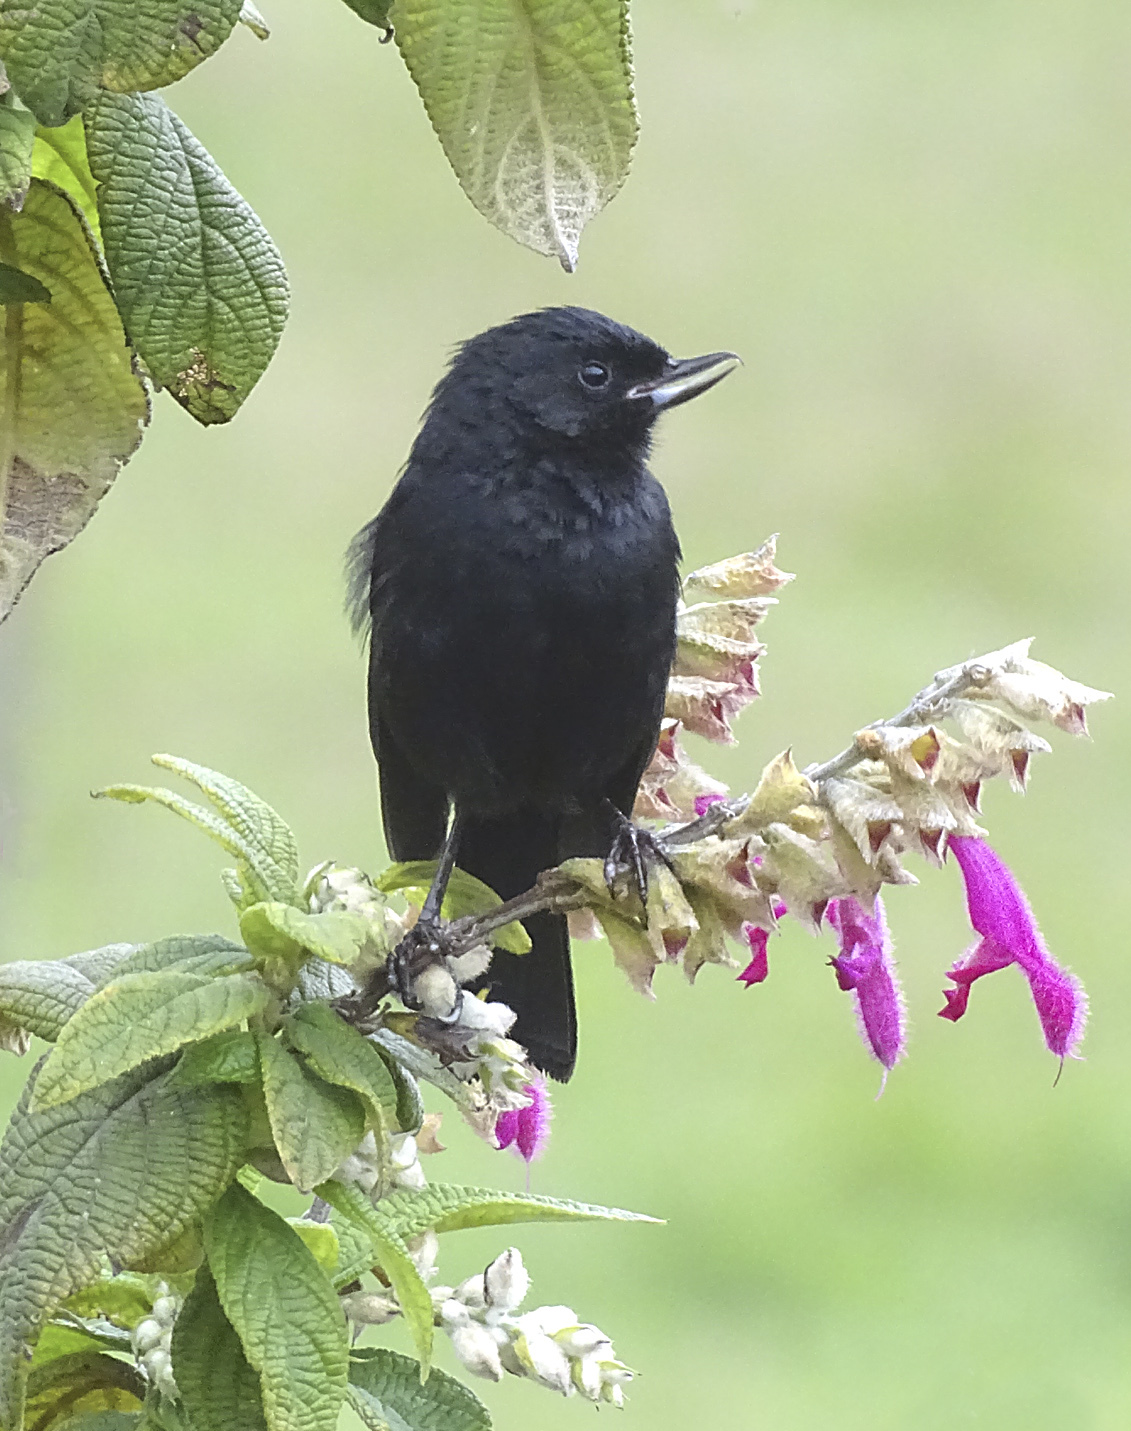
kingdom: Animalia
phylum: Chordata
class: Aves
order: Passeriformes
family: Thraupidae
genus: Diglossa
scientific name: Diglossa humeralis
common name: Black flowerpiercer
